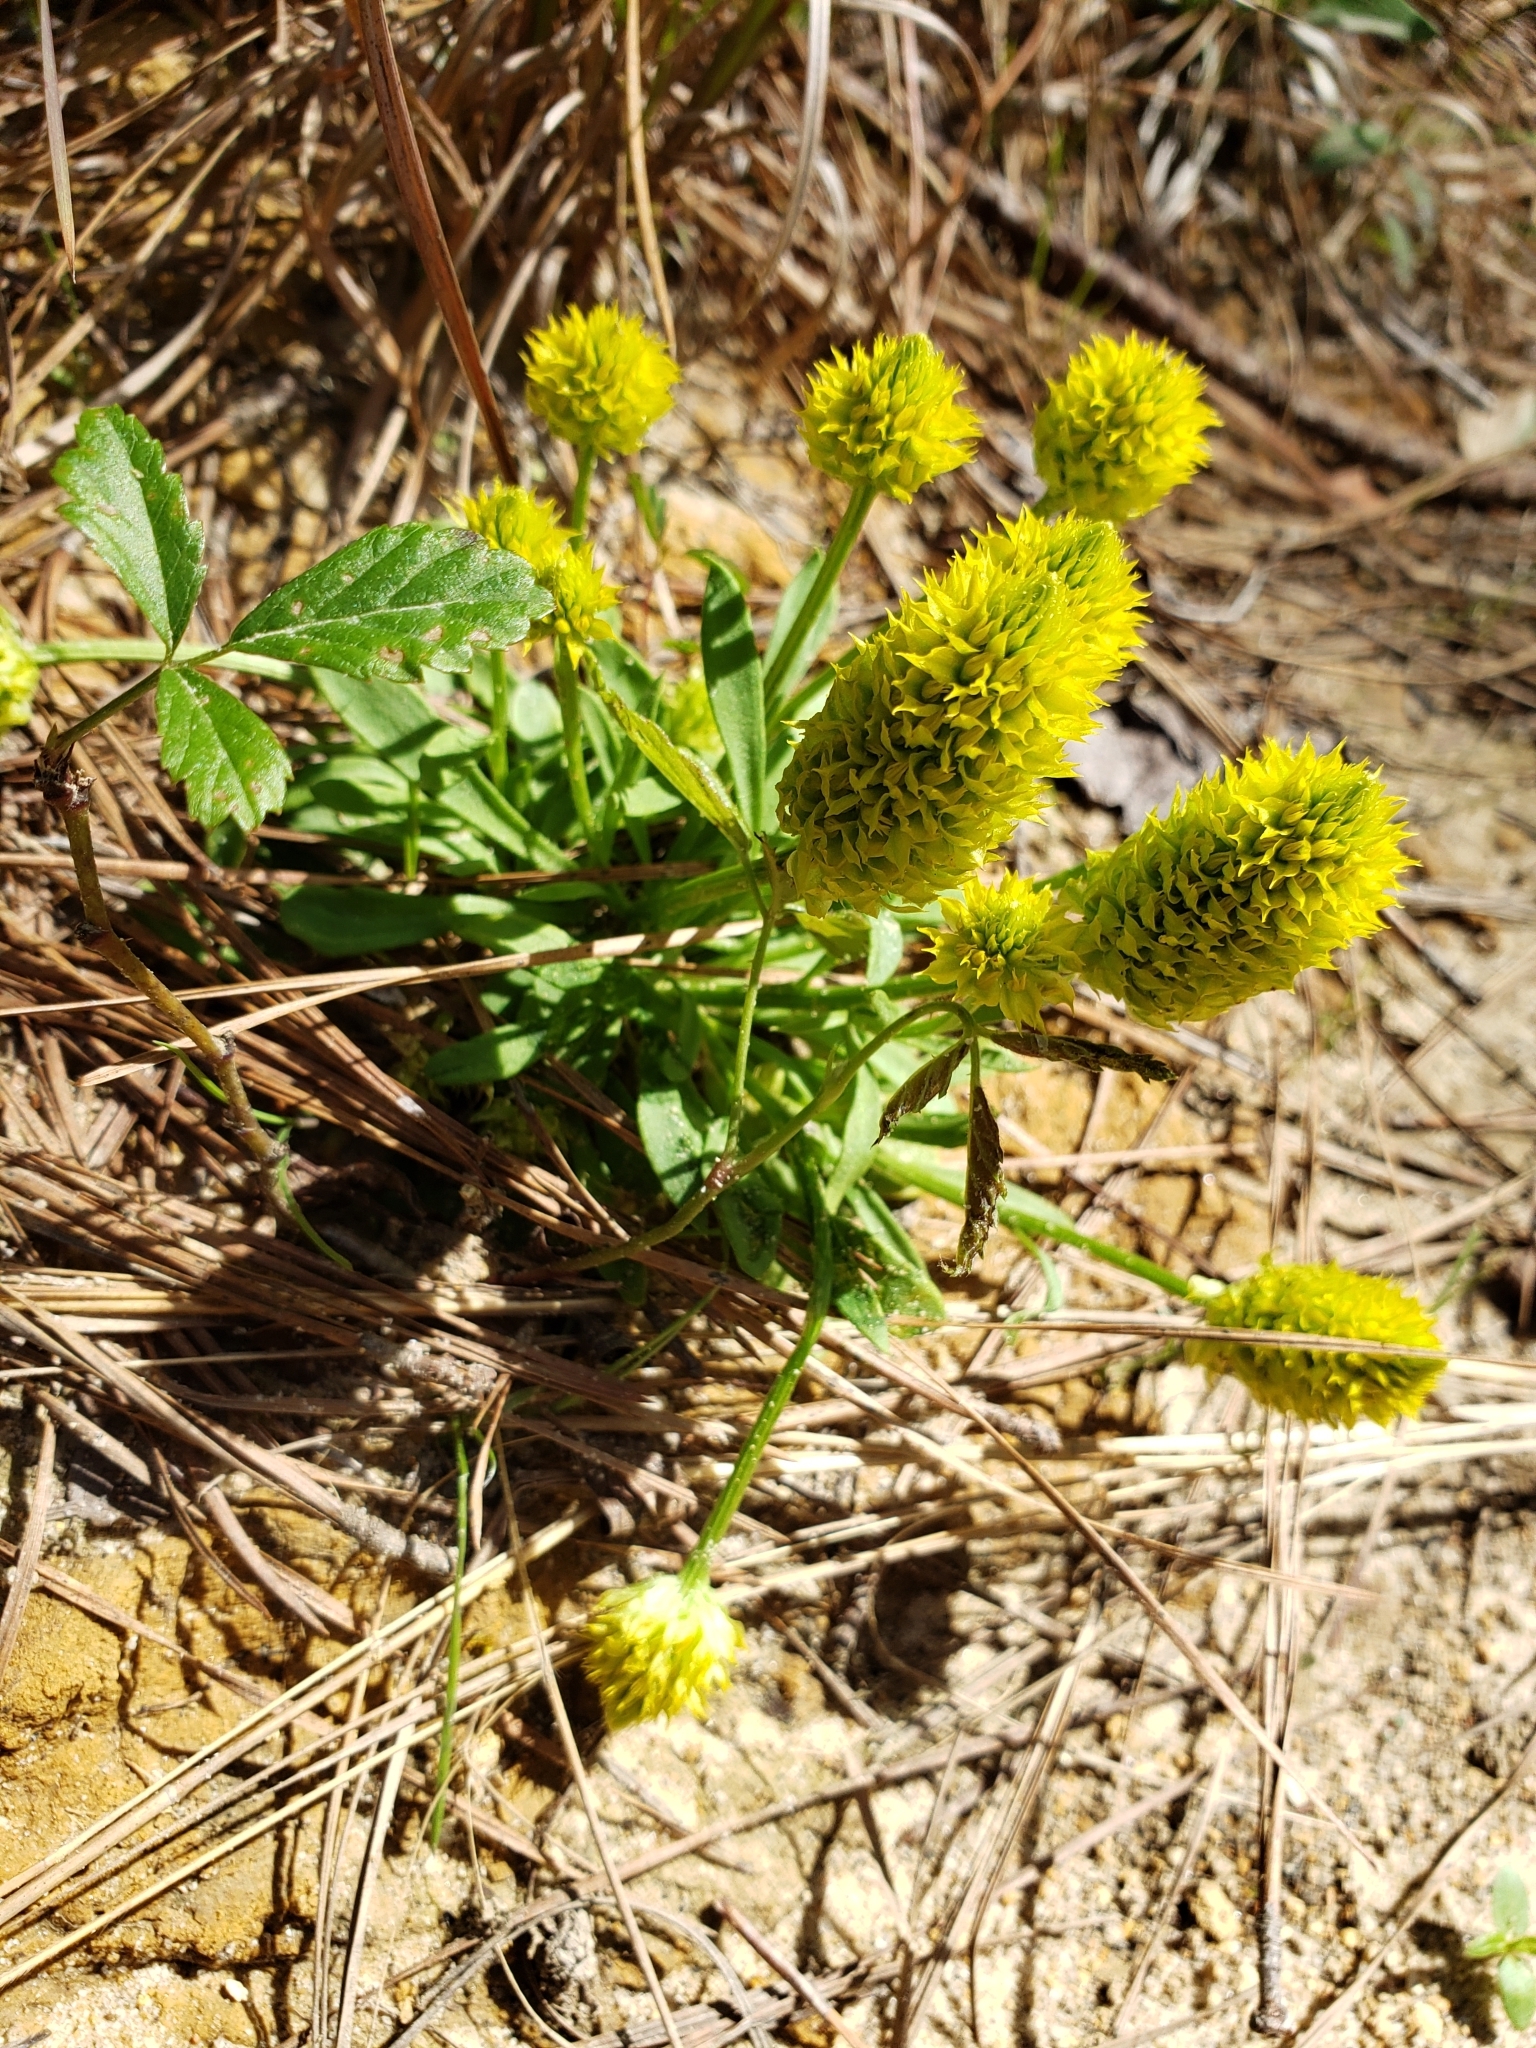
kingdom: Plantae
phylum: Tracheophyta
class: Magnoliopsida
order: Fabales
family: Polygalaceae
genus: Polygala
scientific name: Polygala nana
